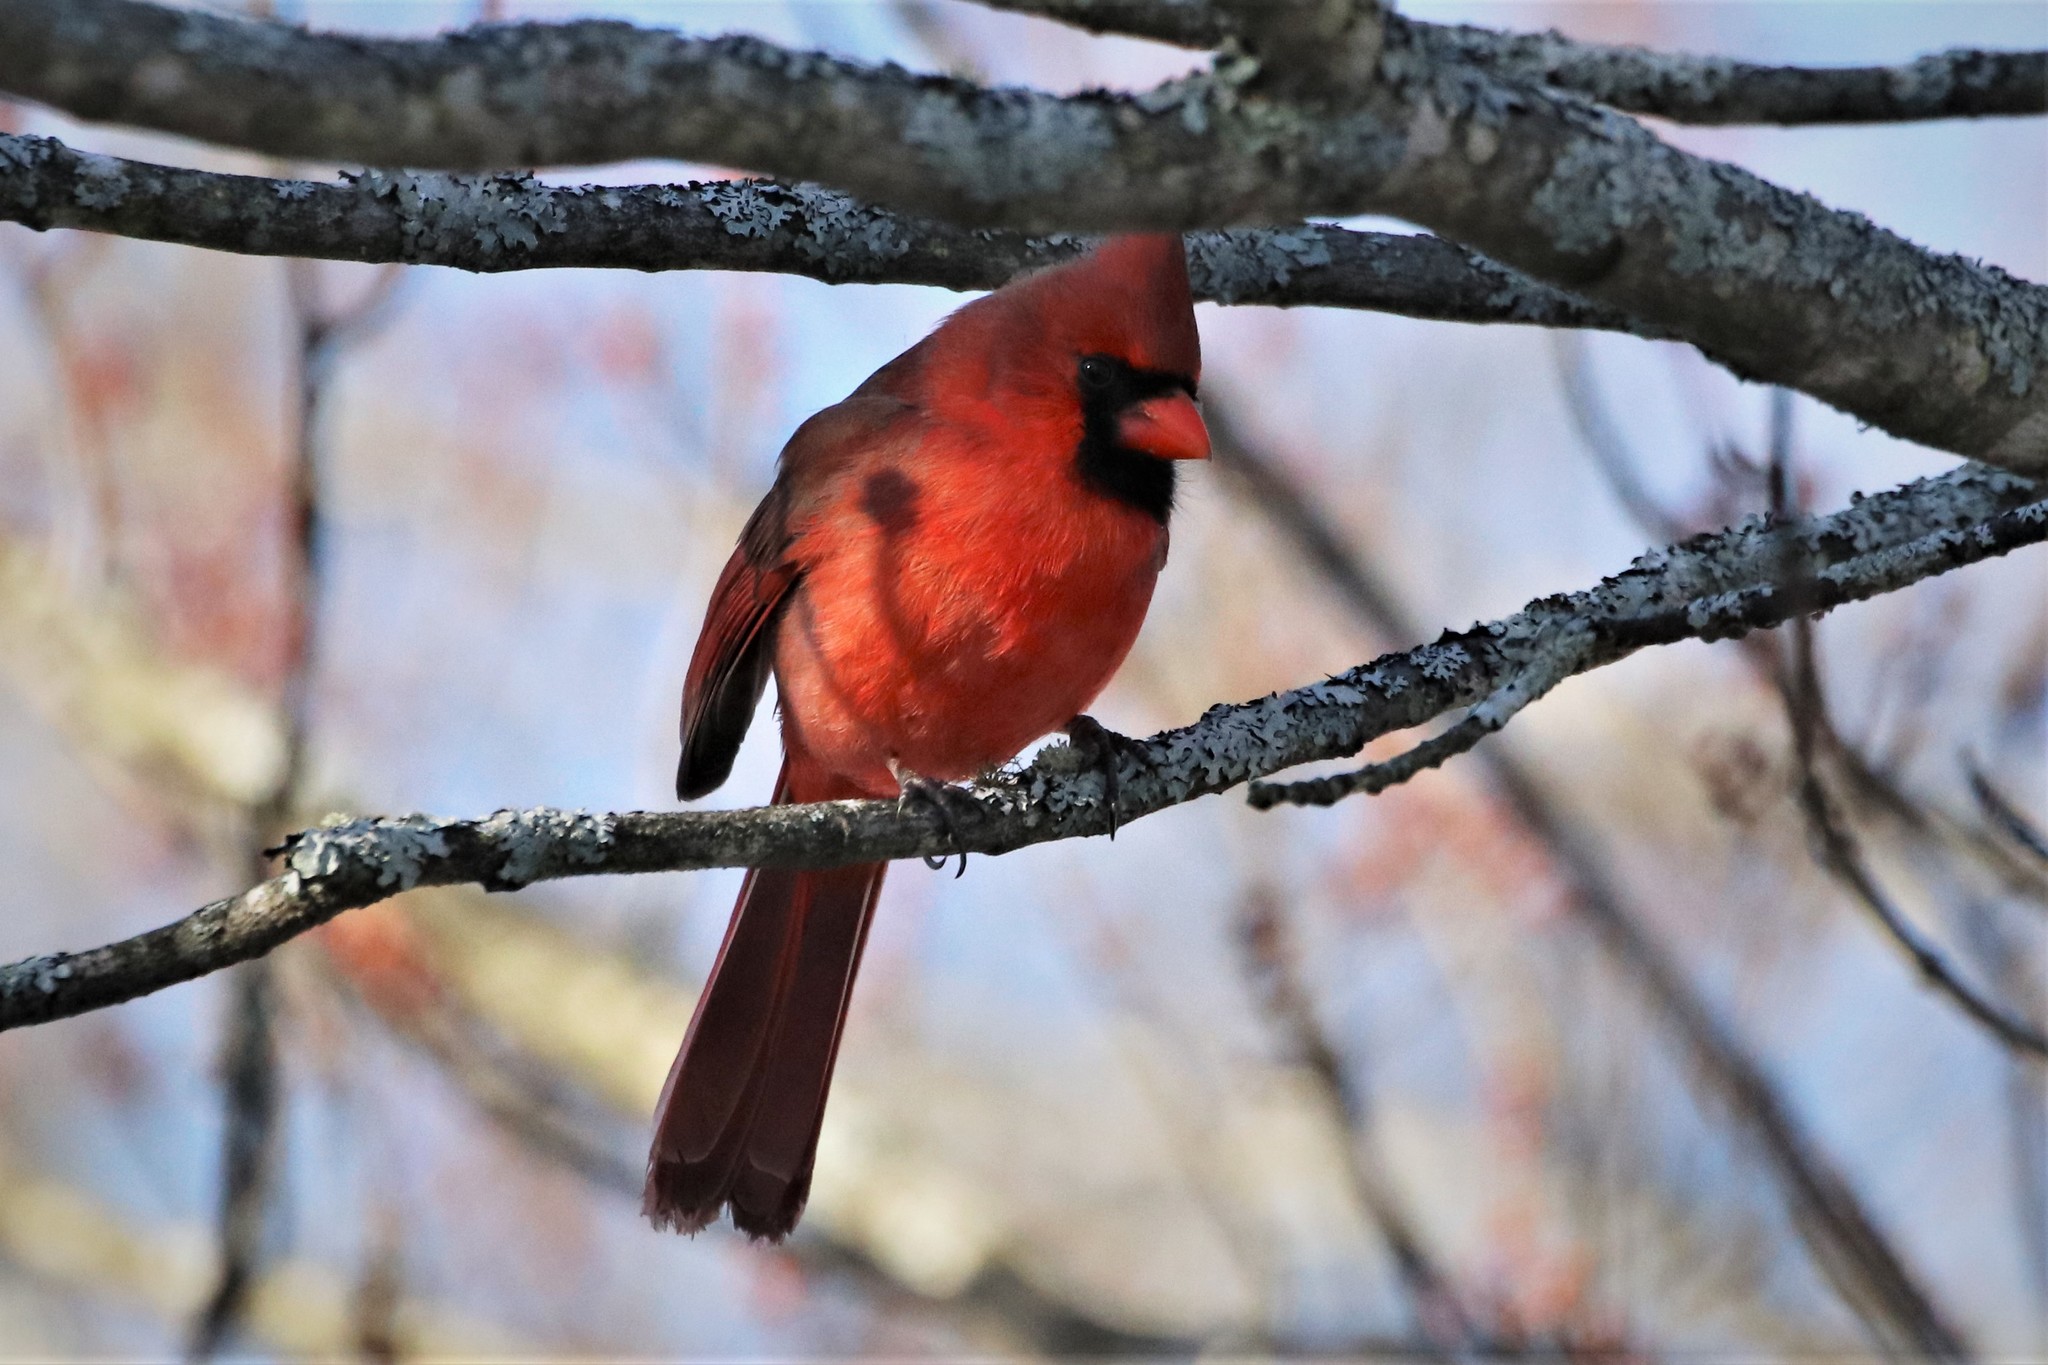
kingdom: Animalia
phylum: Chordata
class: Aves
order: Passeriformes
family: Cardinalidae
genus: Cardinalis
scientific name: Cardinalis cardinalis
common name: Northern cardinal
